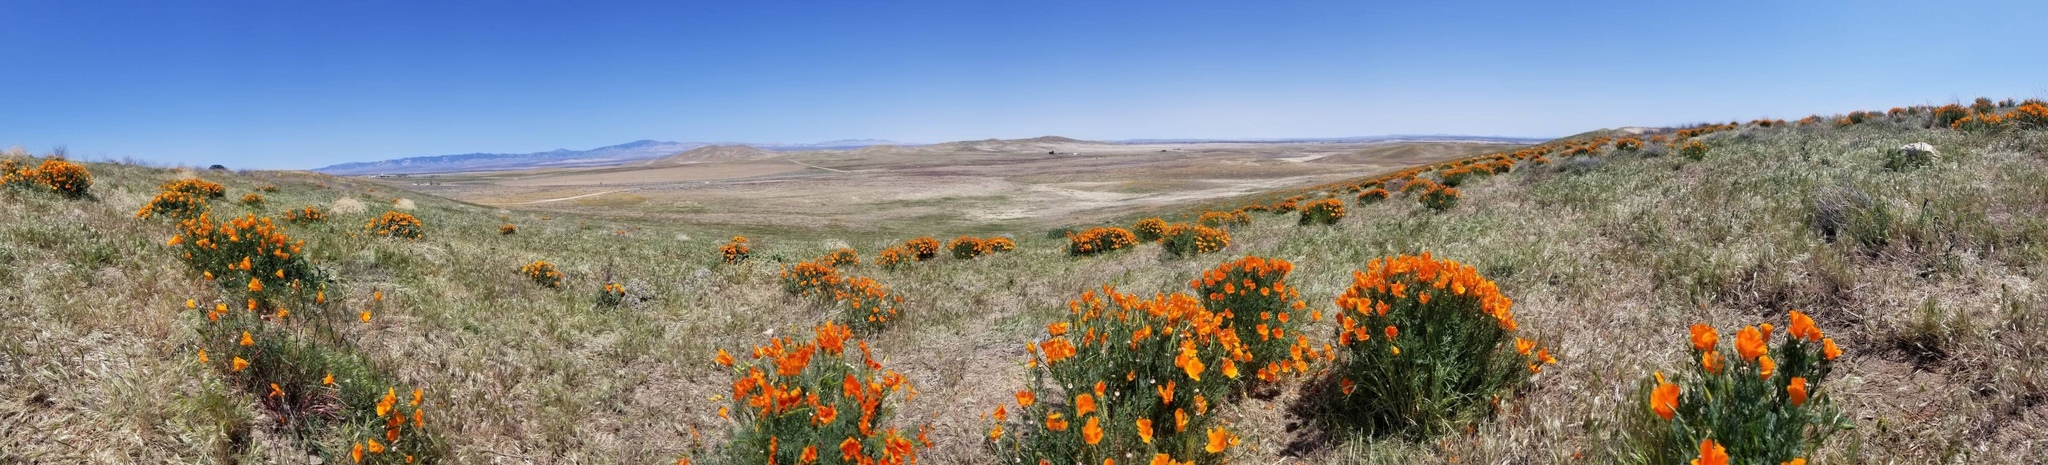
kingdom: Plantae
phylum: Tracheophyta
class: Magnoliopsida
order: Ranunculales
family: Papaveraceae
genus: Eschscholzia
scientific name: Eschscholzia californica
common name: California poppy
